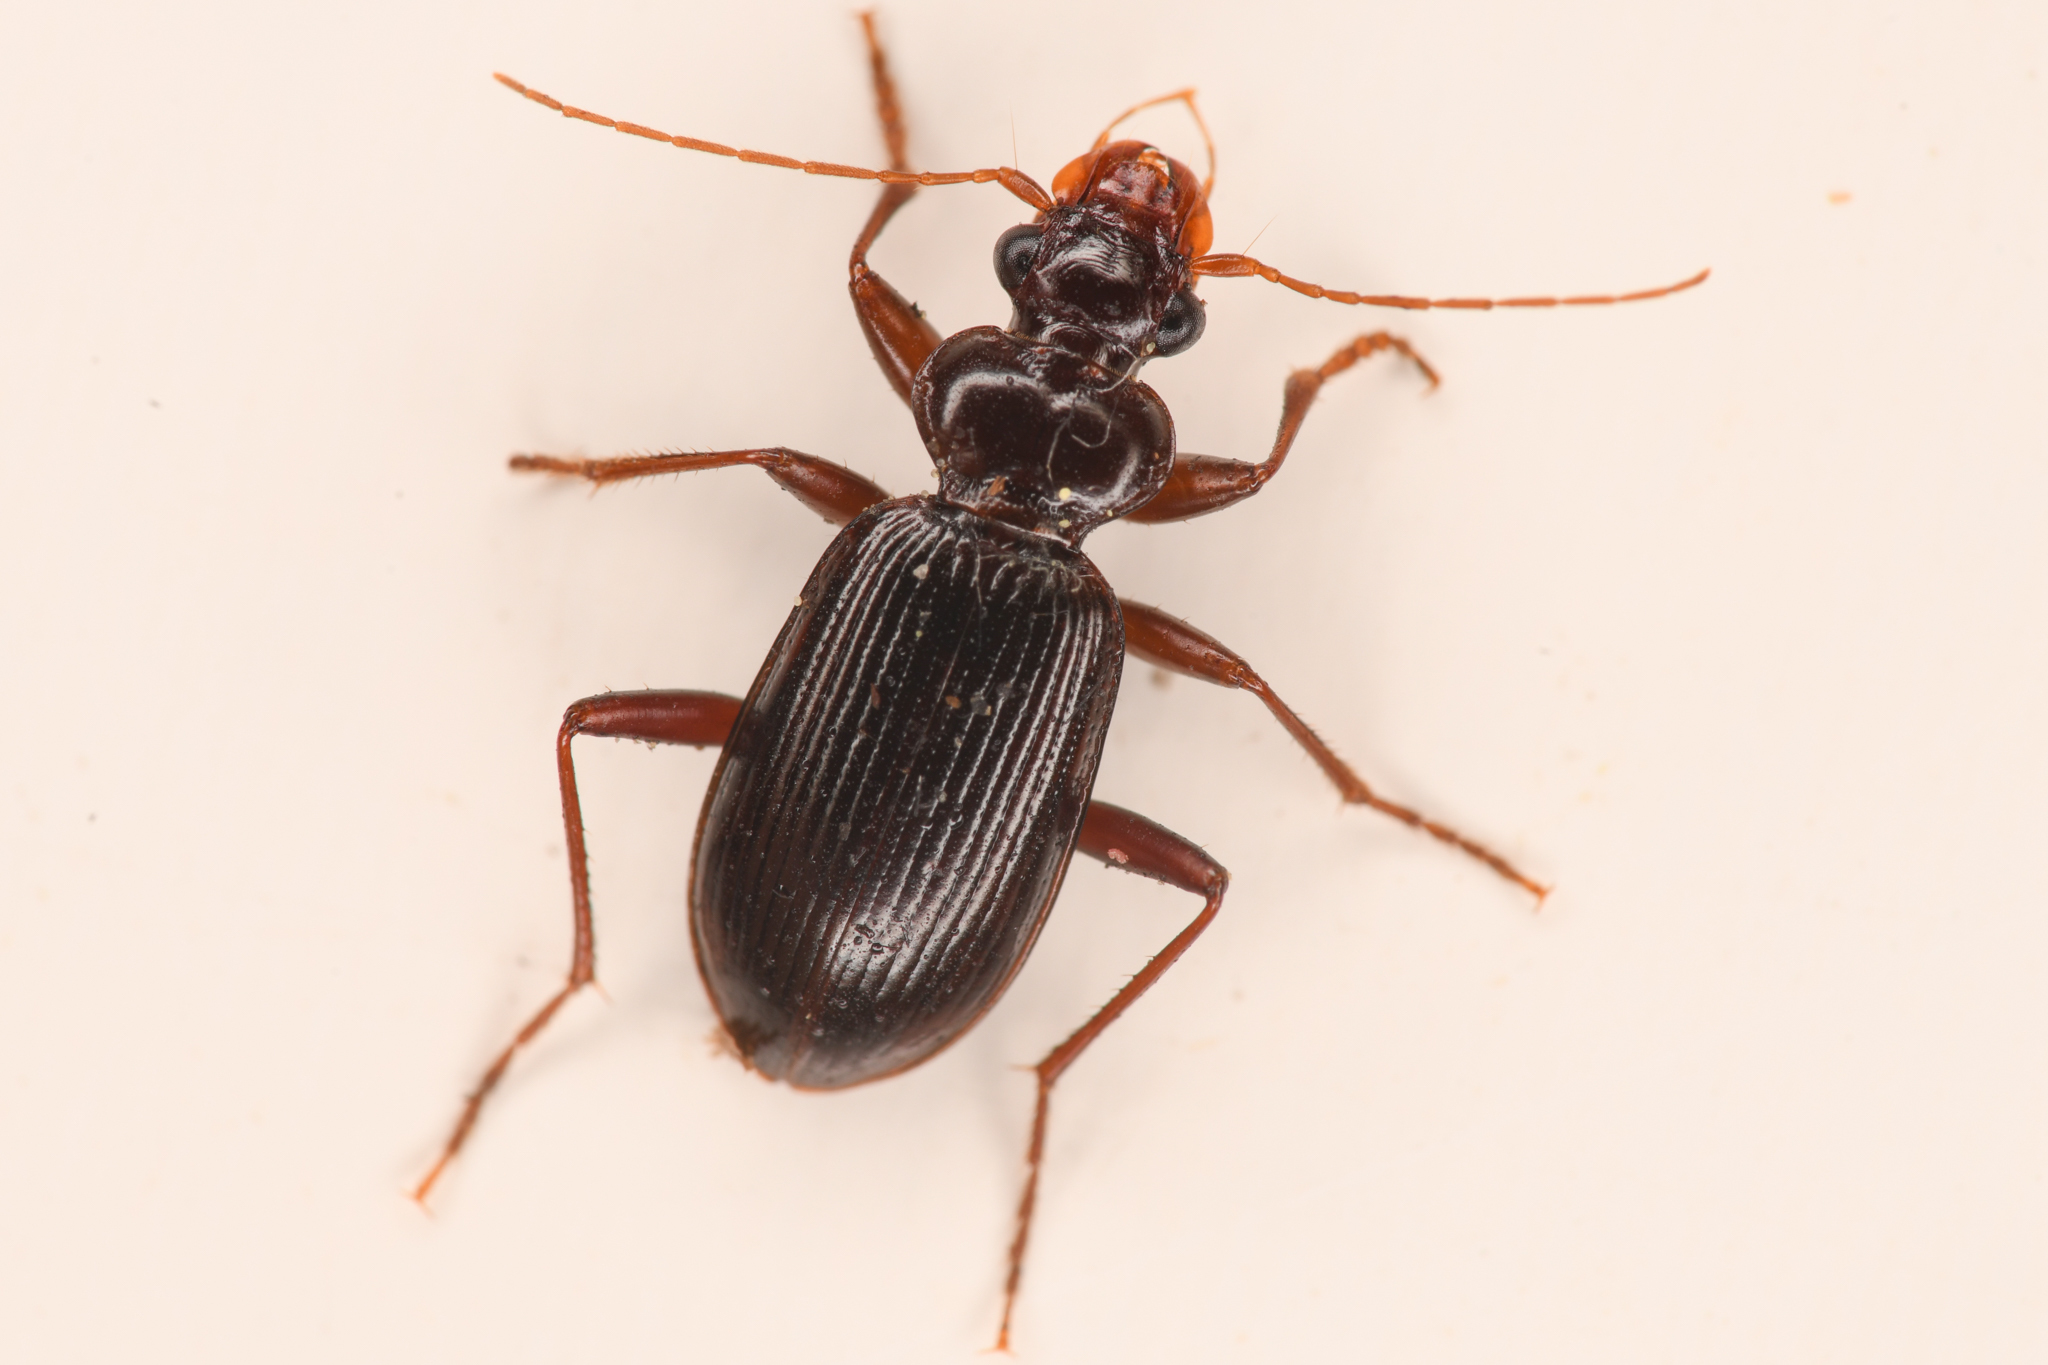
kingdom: Animalia
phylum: Arthropoda
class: Insecta
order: Coleoptera
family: Carabidae
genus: Leistus
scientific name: Leistus ferruginosus
